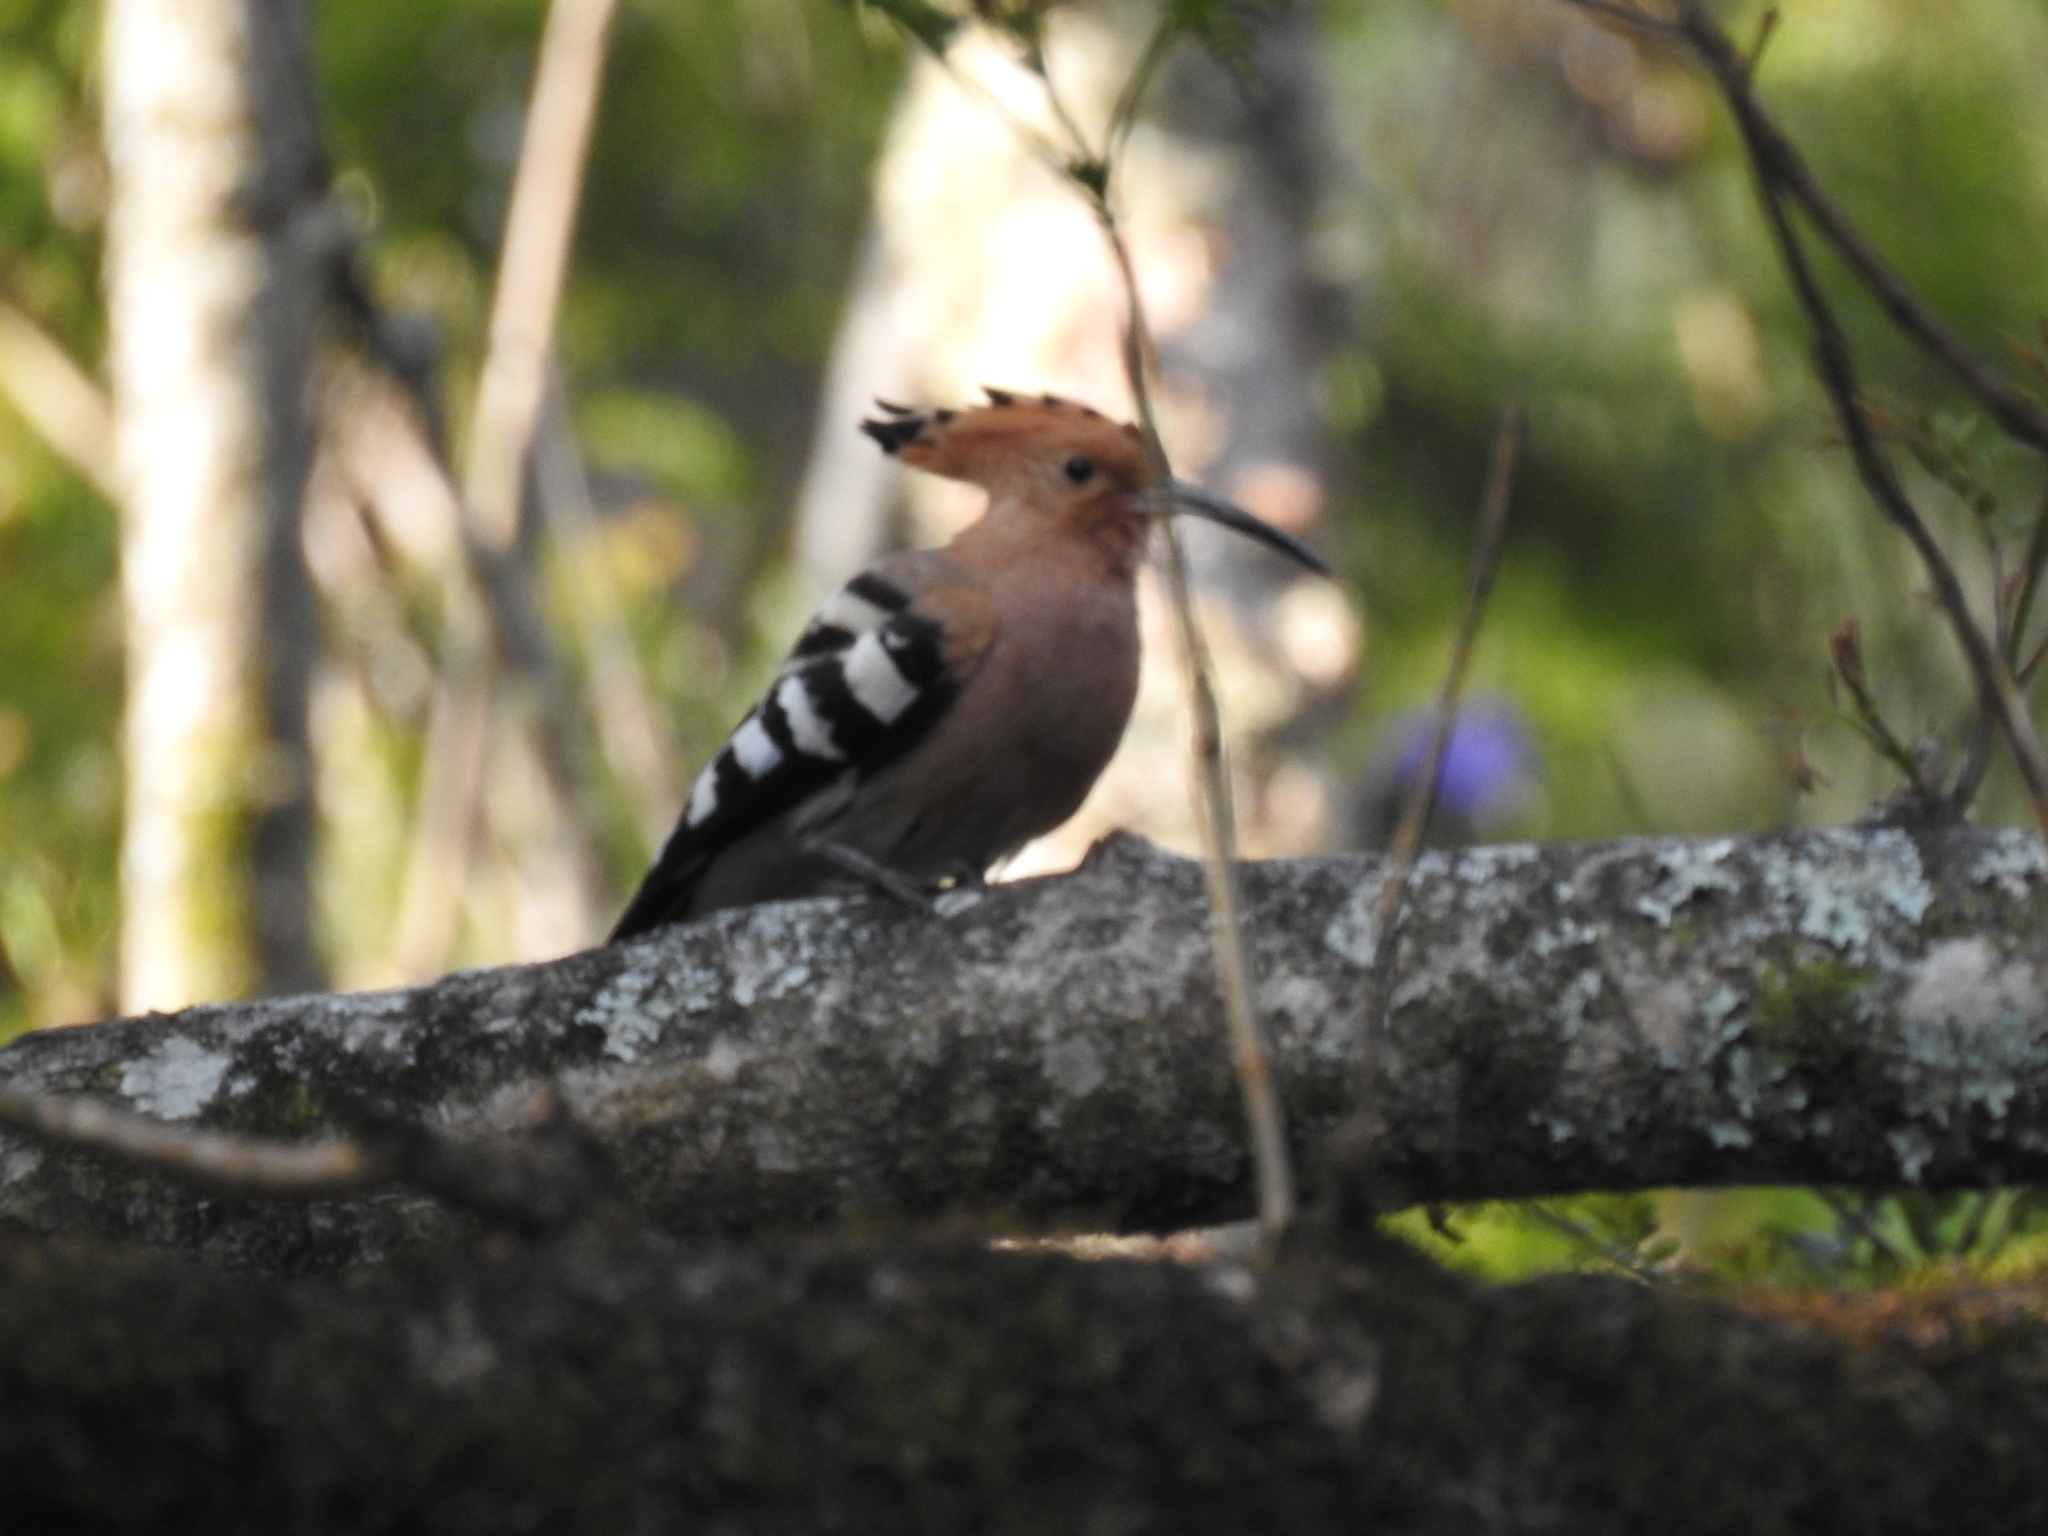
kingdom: Animalia
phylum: Chordata
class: Aves
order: Bucerotiformes
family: Upupidae
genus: Upupa
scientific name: Upupa epops
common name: Eurasian hoopoe
